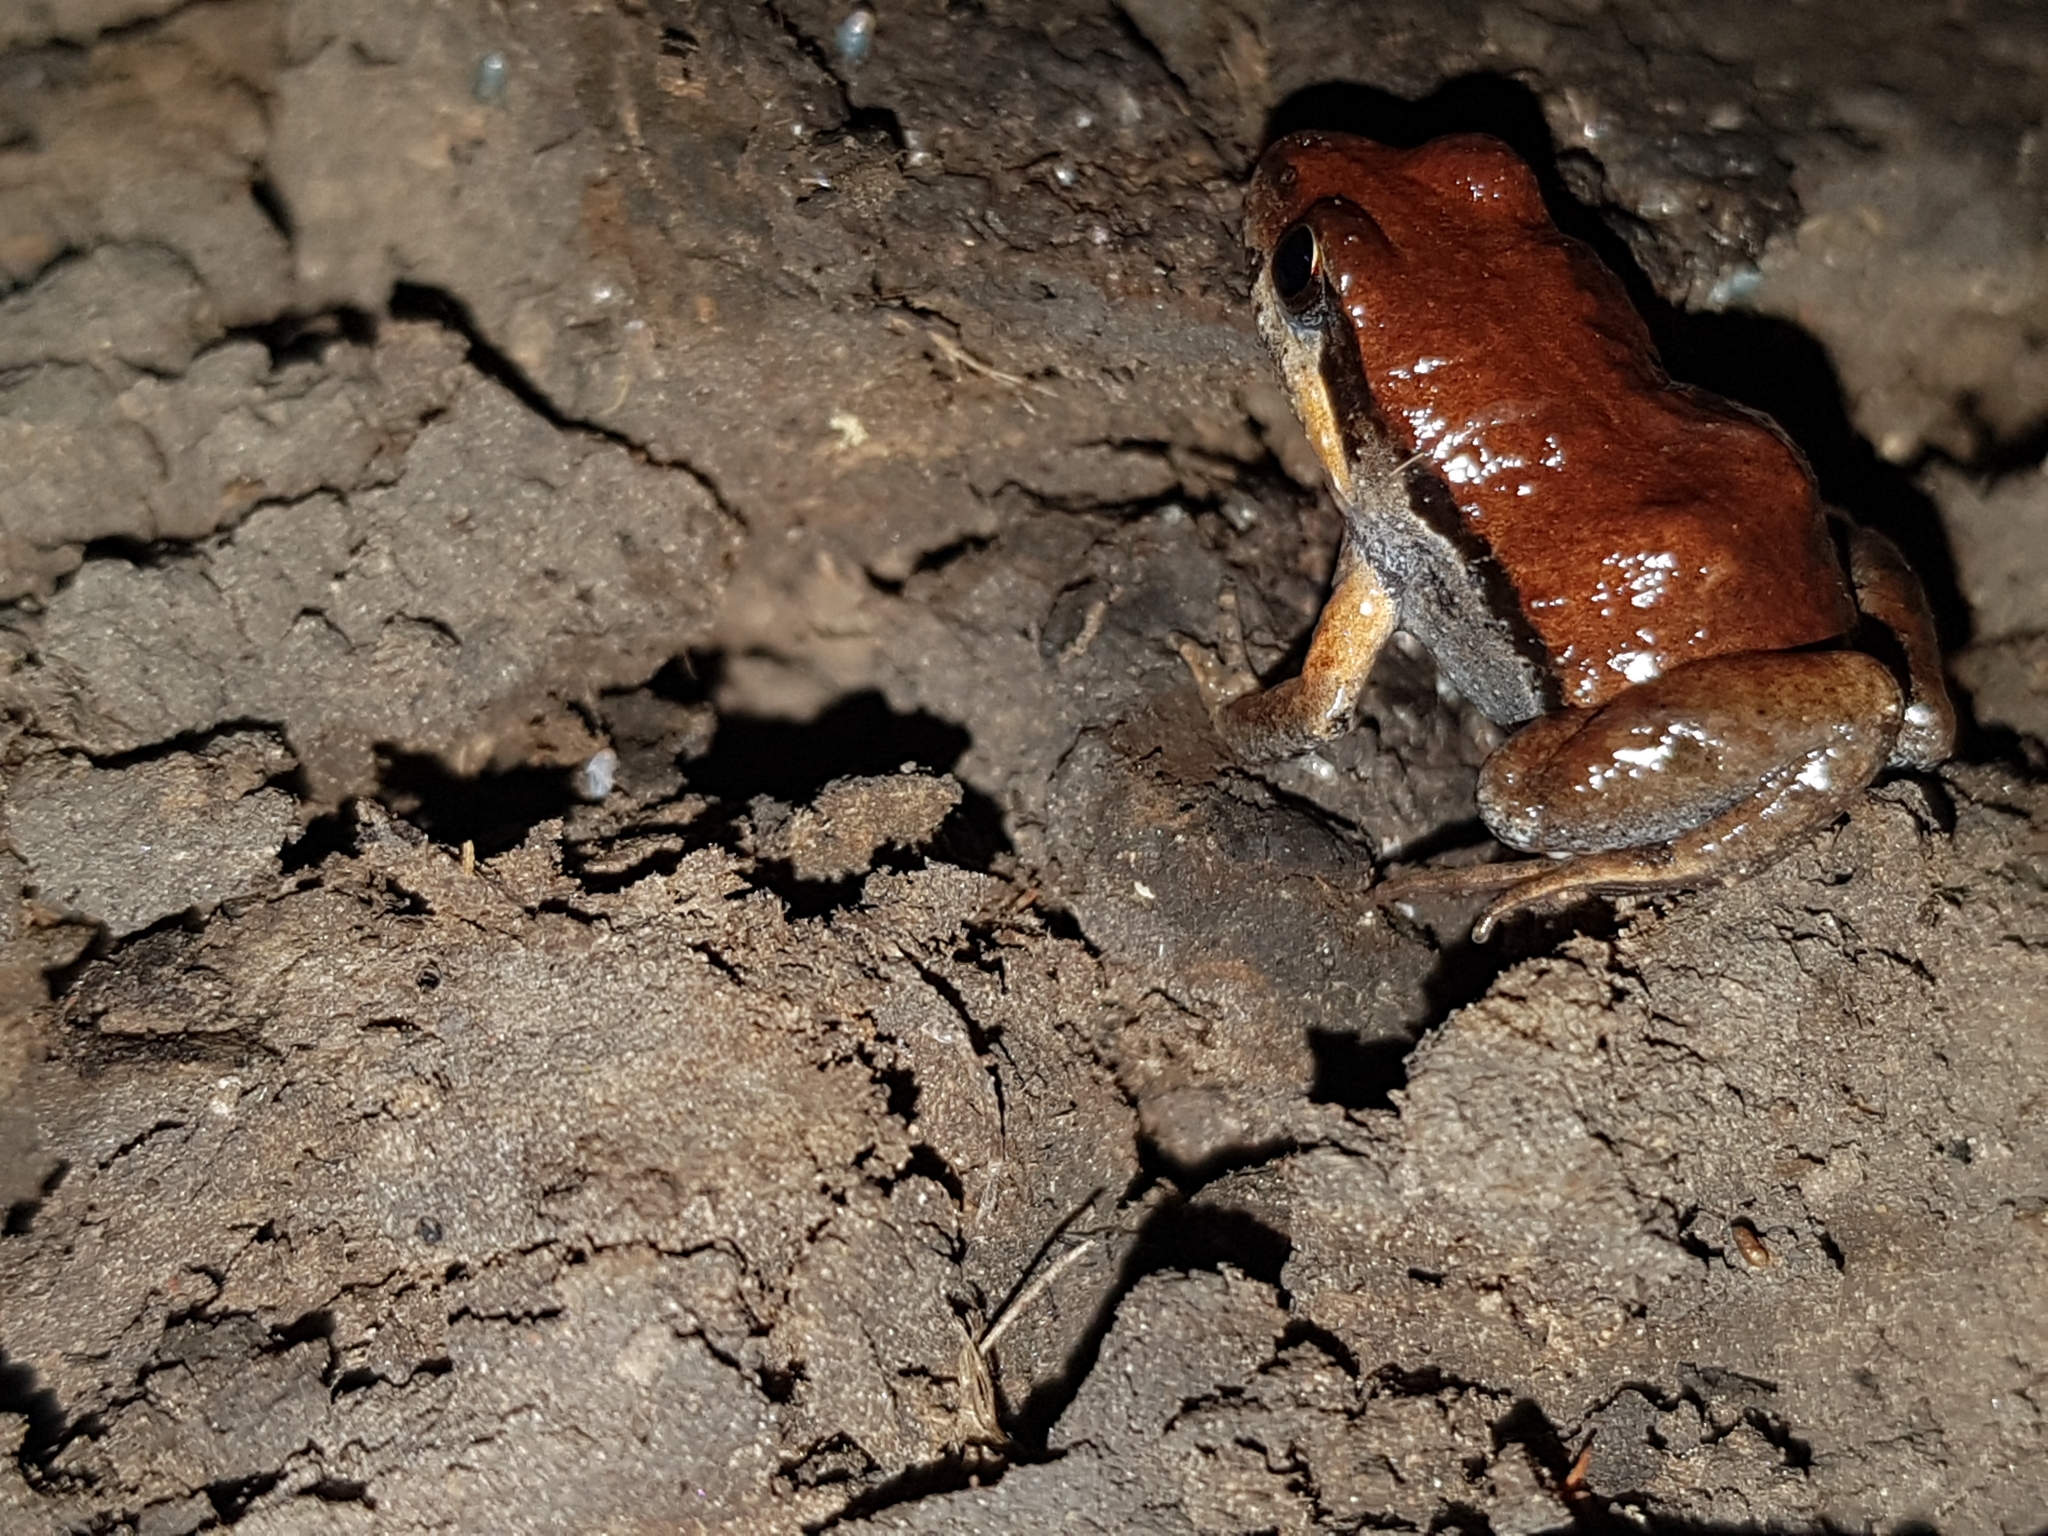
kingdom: Animalia
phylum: Chordata
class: Amphibia
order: Anura
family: Myobatrachidae
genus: Crinia
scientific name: Crinia parinsignifera
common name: Beeping froglet
